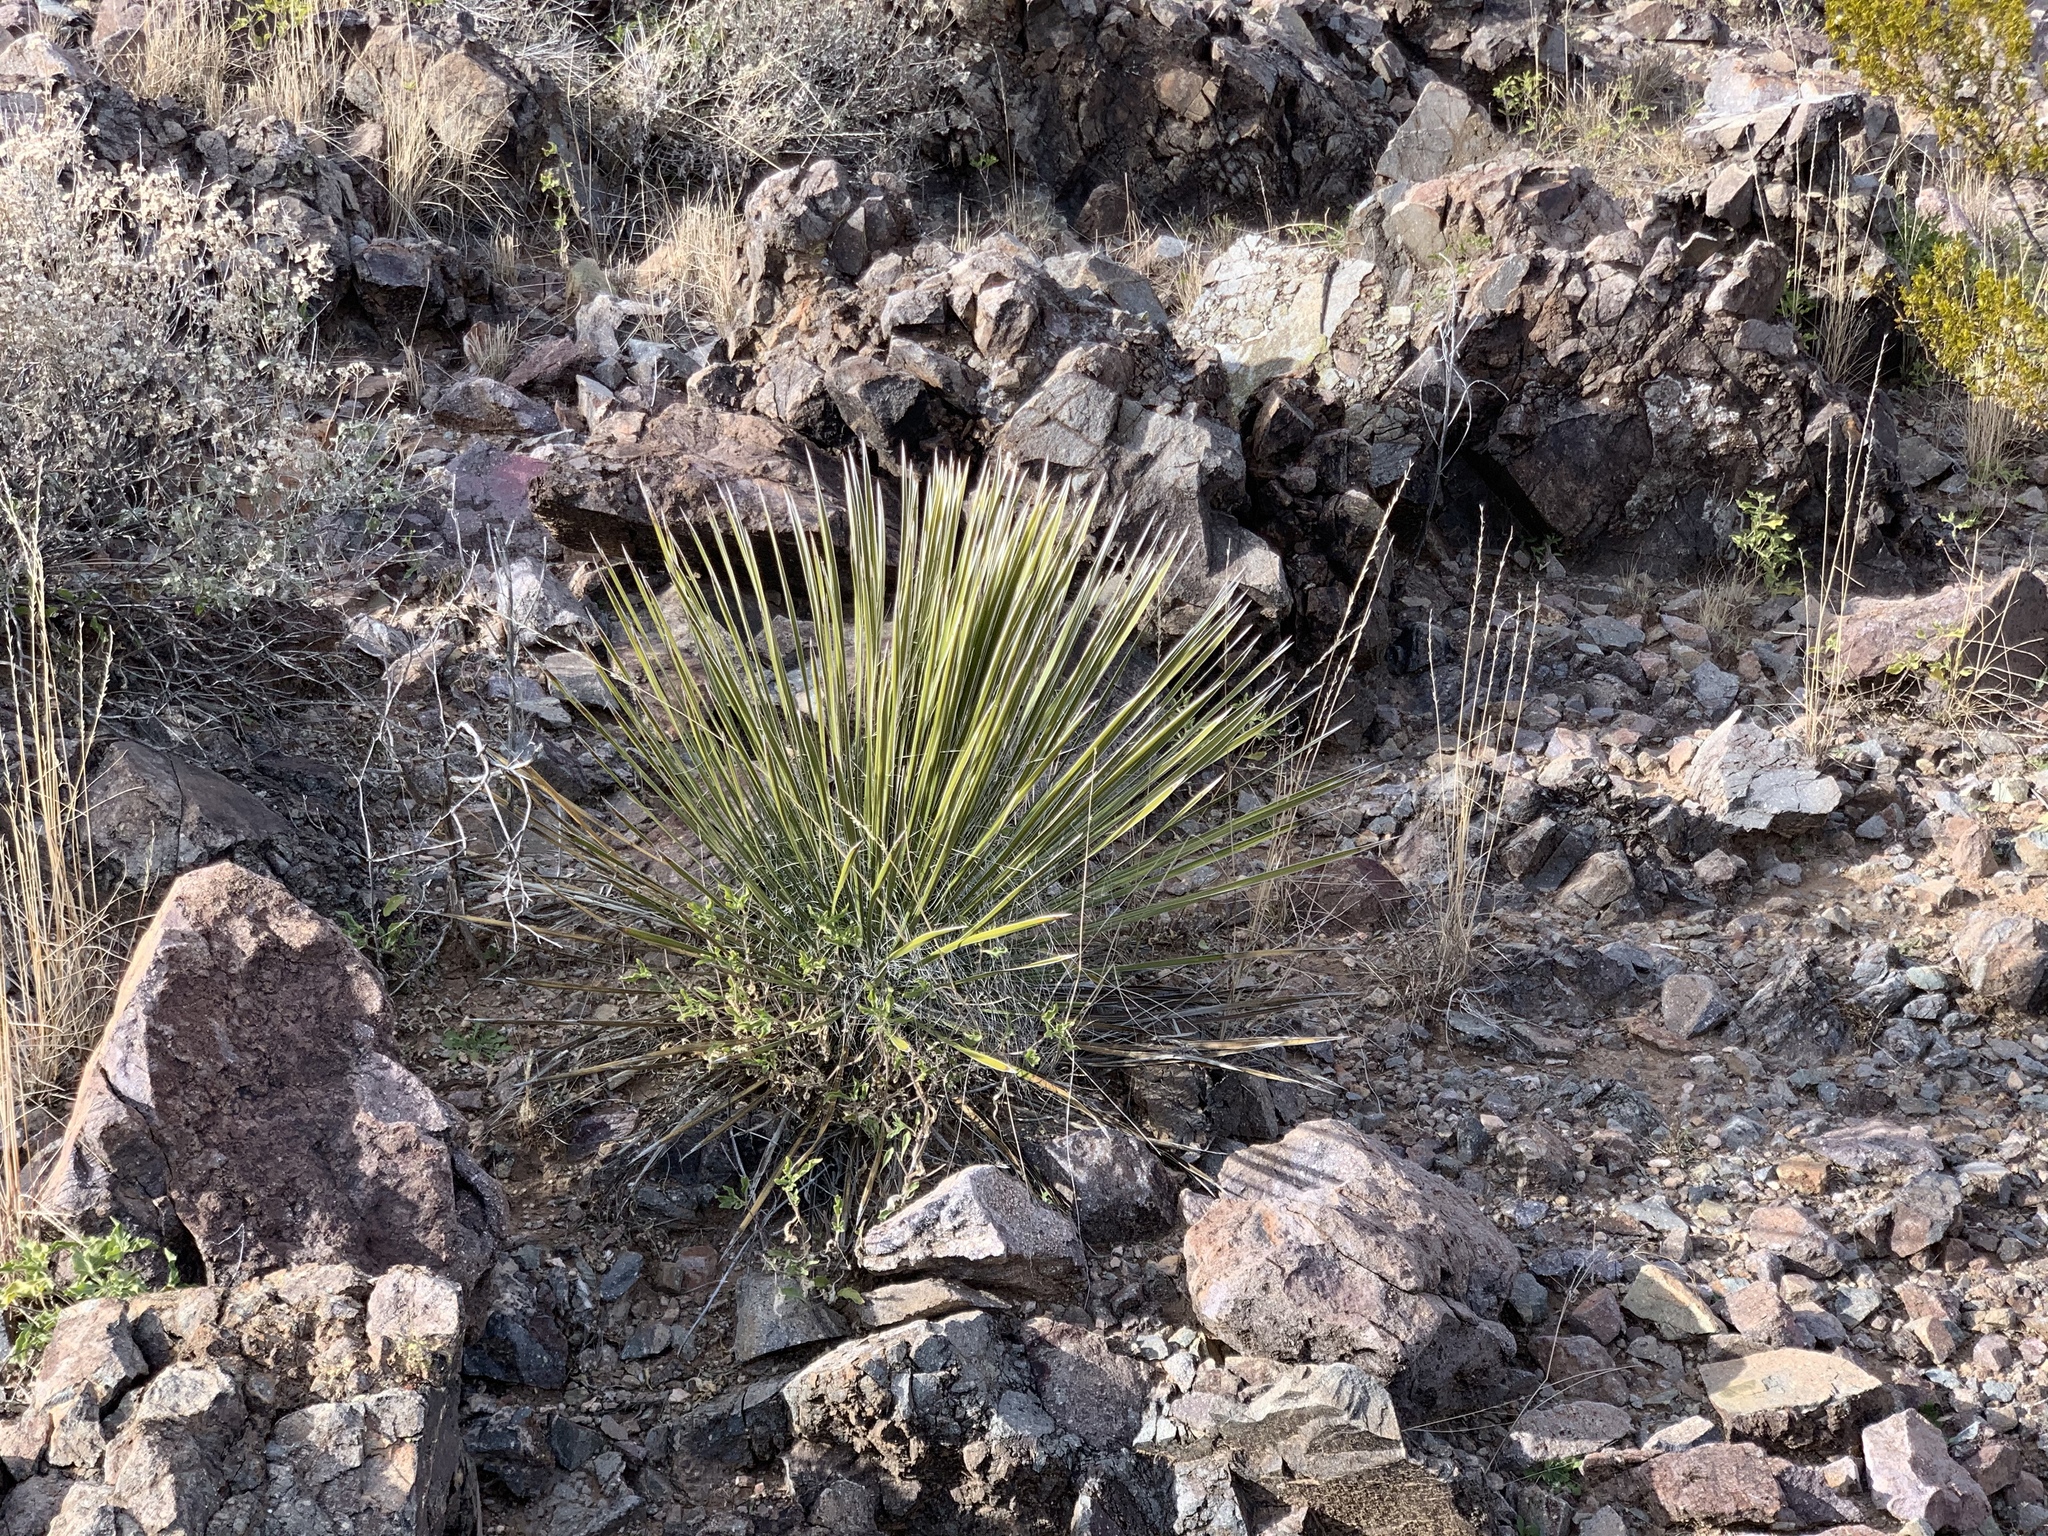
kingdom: Plantae
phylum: Tracheophyta
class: Liliopsida
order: Asparagales
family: Asparagaceae
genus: Yucca
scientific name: Yucca elata
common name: Palmella
